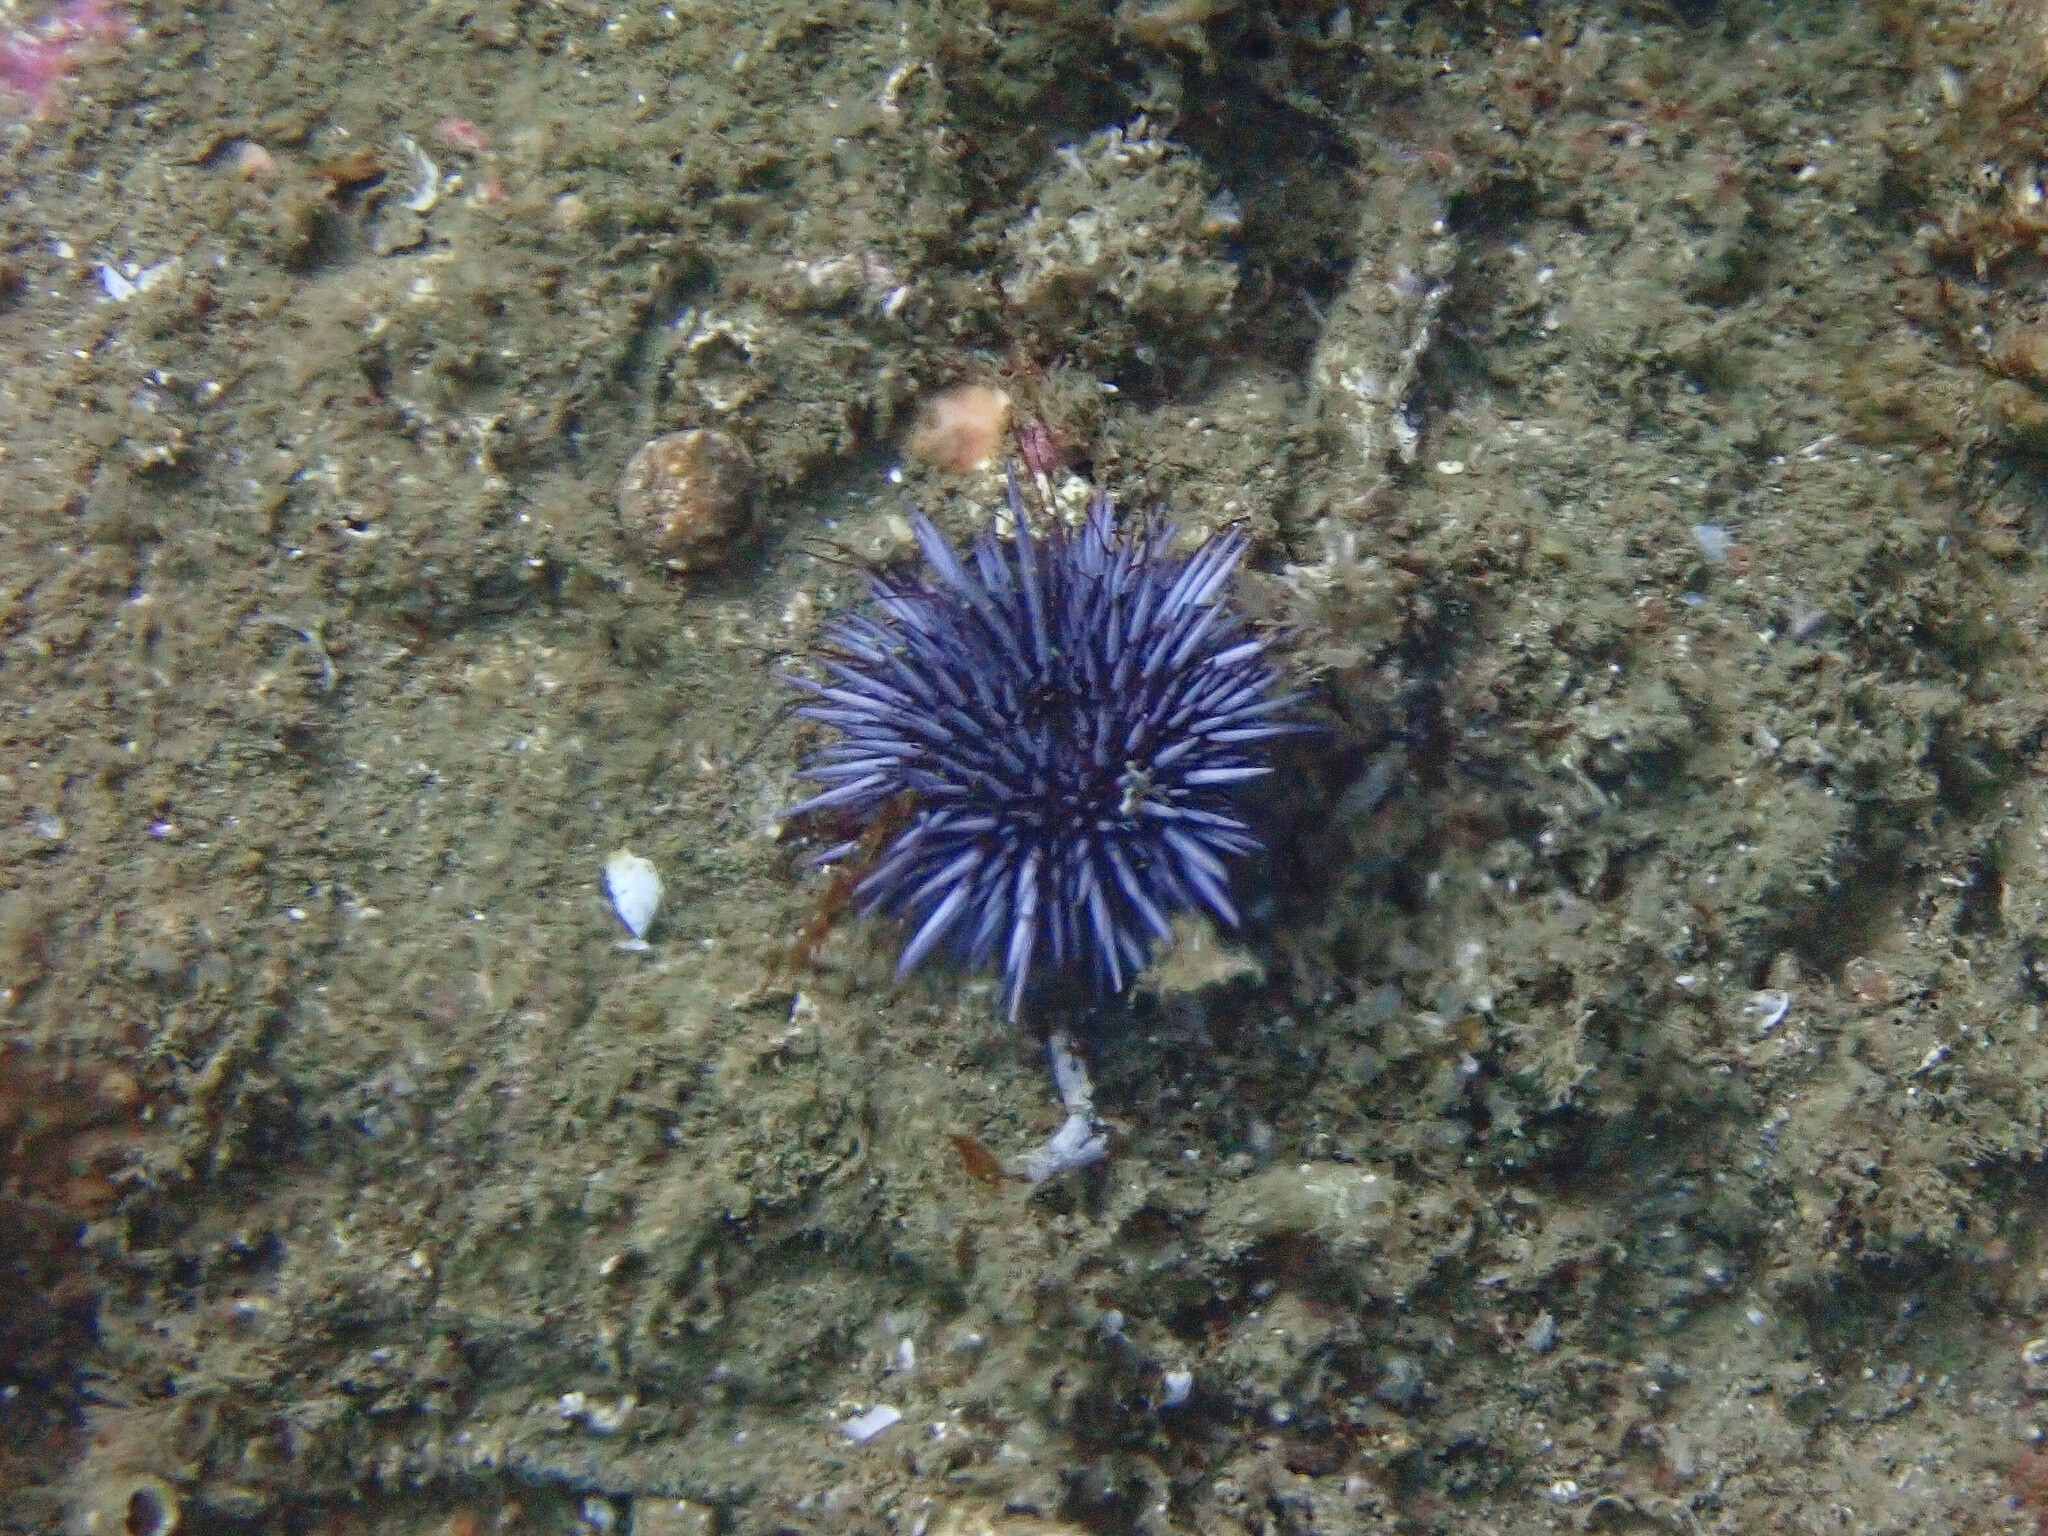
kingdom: Animalia
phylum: Echinodermata
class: Echinoidea
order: Camarodonta
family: Strongylocentrotidae
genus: Strongylocentrotus
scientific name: Strongylocentrotus purpuratus
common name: Purple sea urchin
